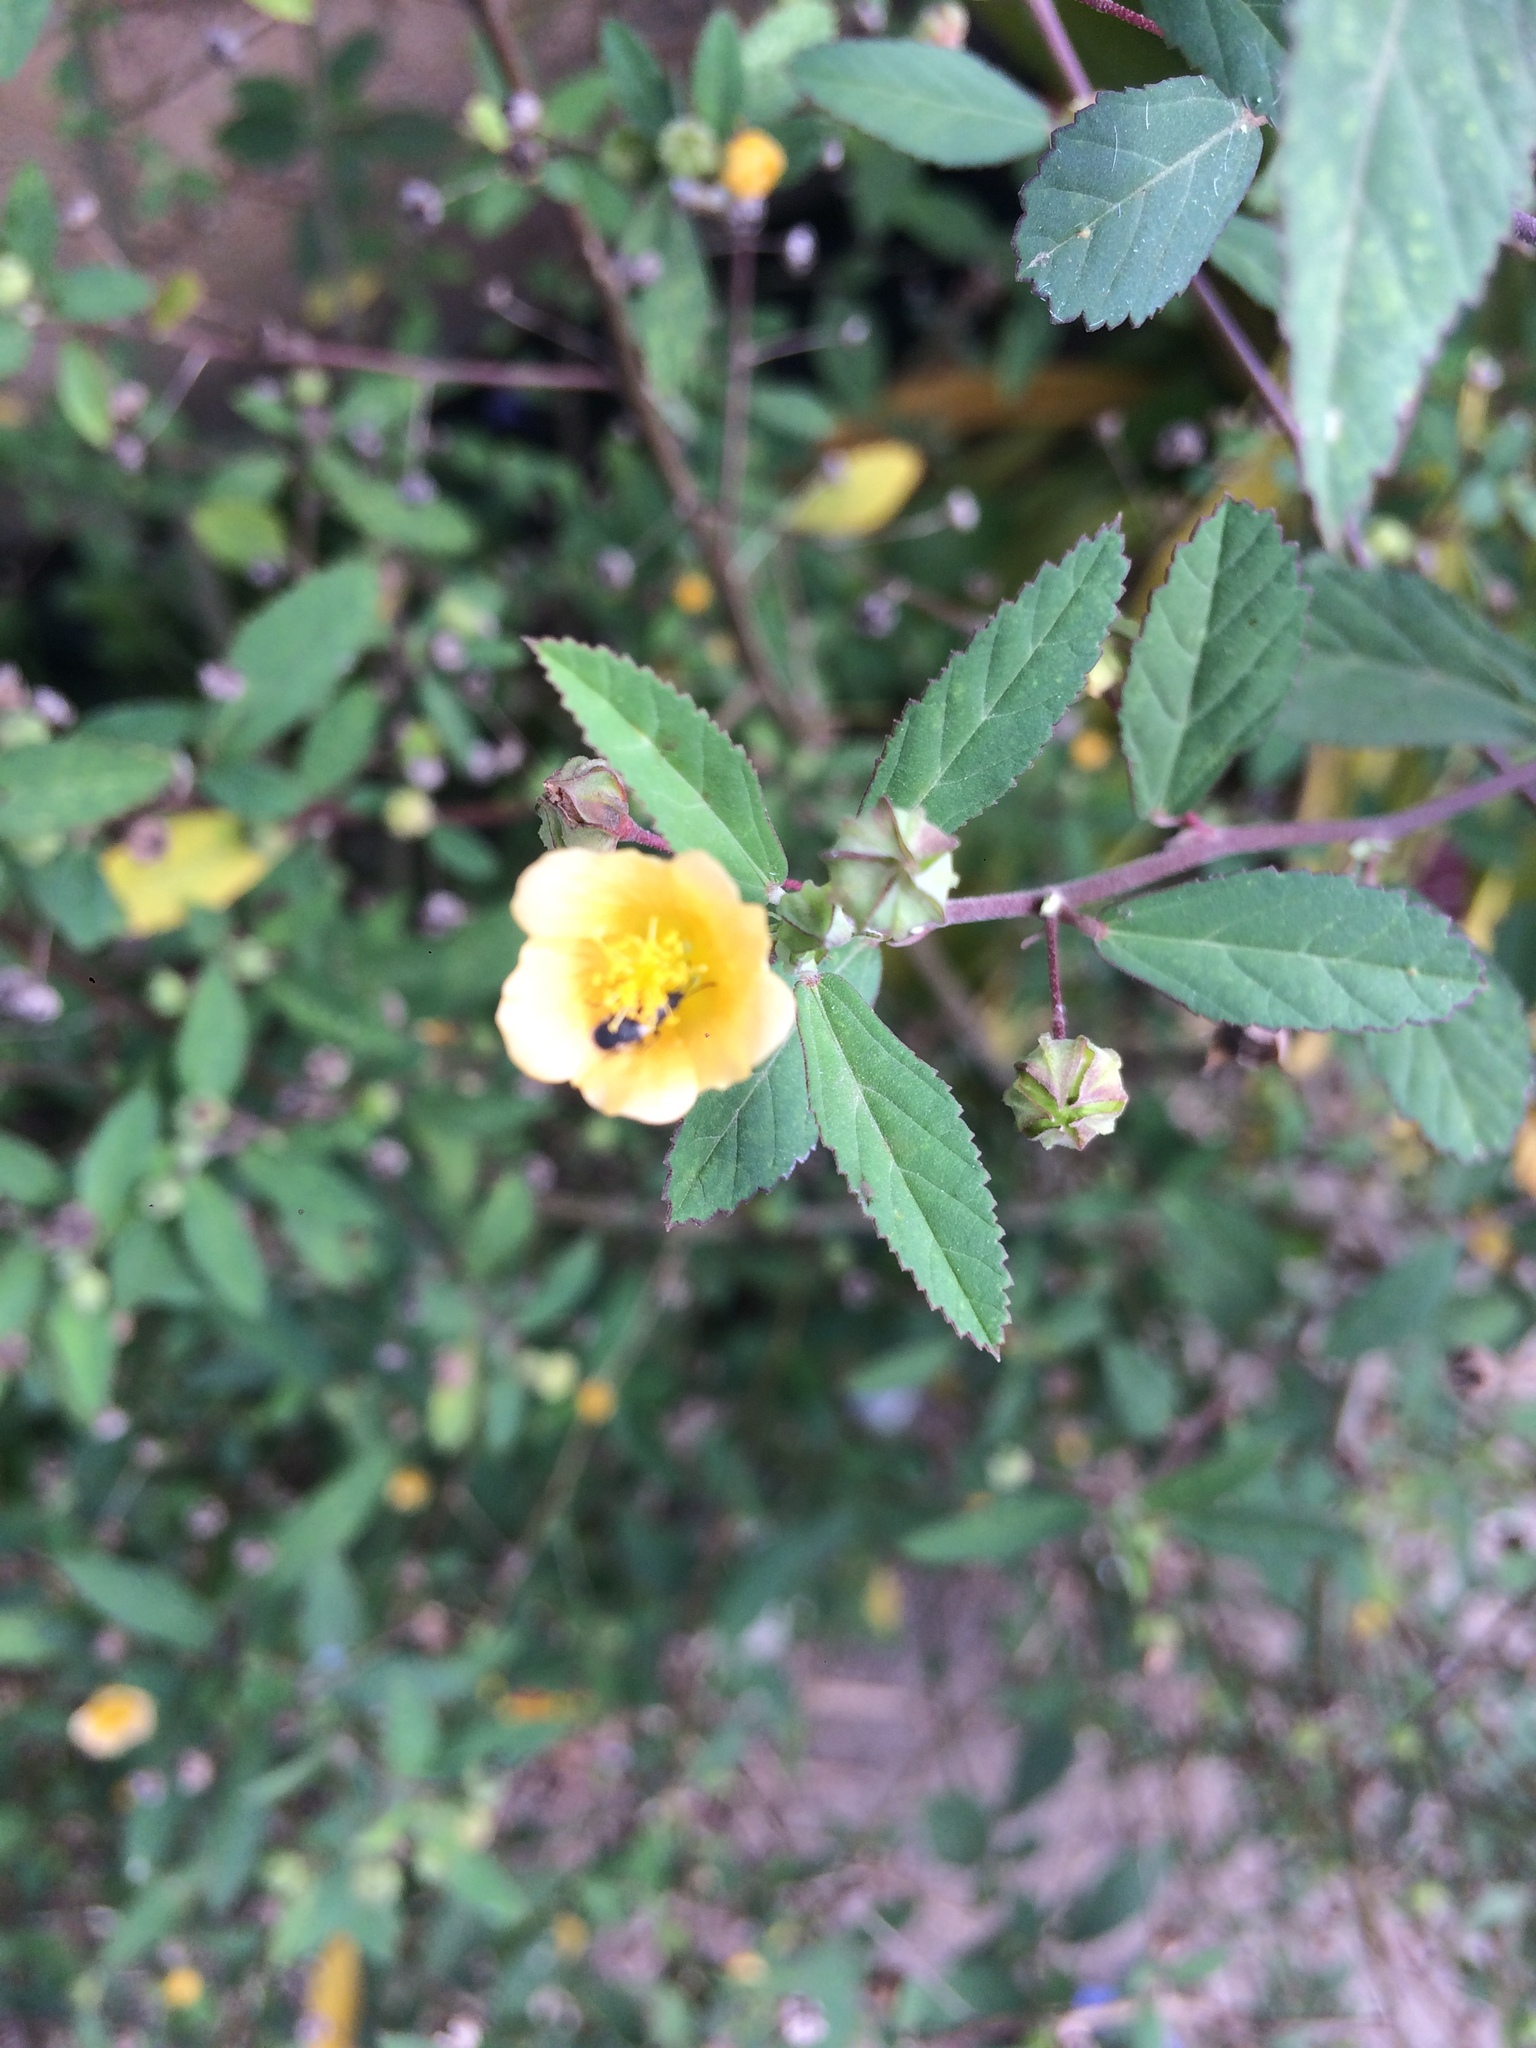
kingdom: Plantae
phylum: Tracheophyta
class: Magnoliopsida
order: Malvales
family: Malvaceae
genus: Sida
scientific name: Sida rhombifolia
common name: Queensland-hemp
